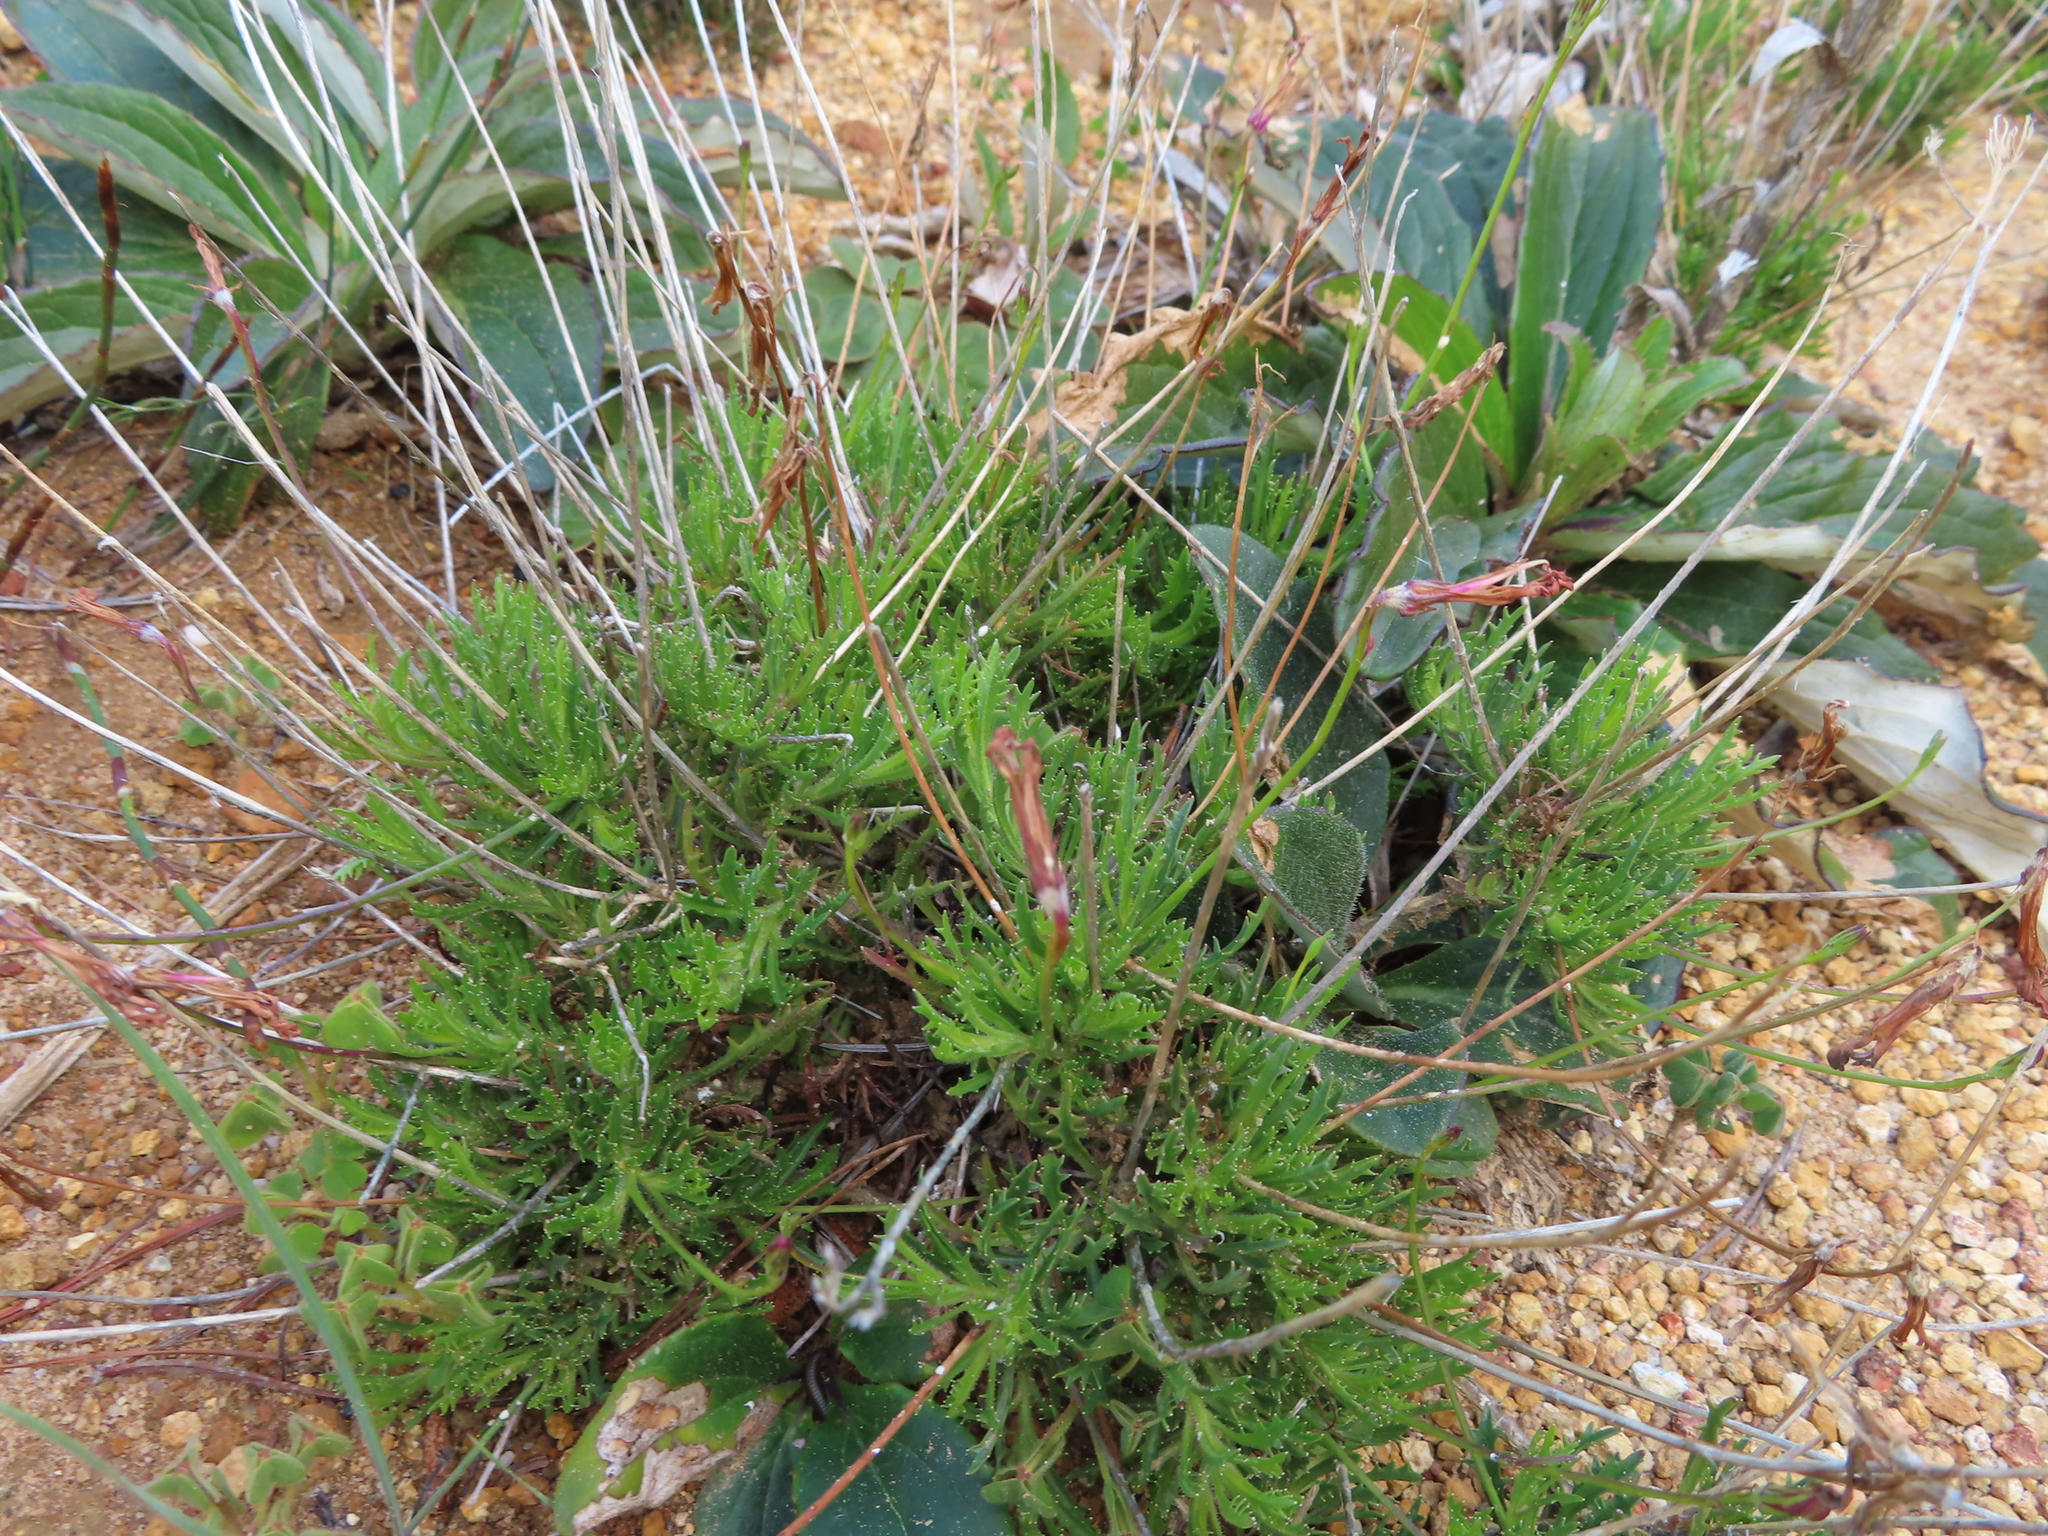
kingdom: Plantae
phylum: Tracheophyta
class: Magnoliopsida
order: Asterales
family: Campanulaceae
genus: Lobelia
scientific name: Lobelia coronopifolia
